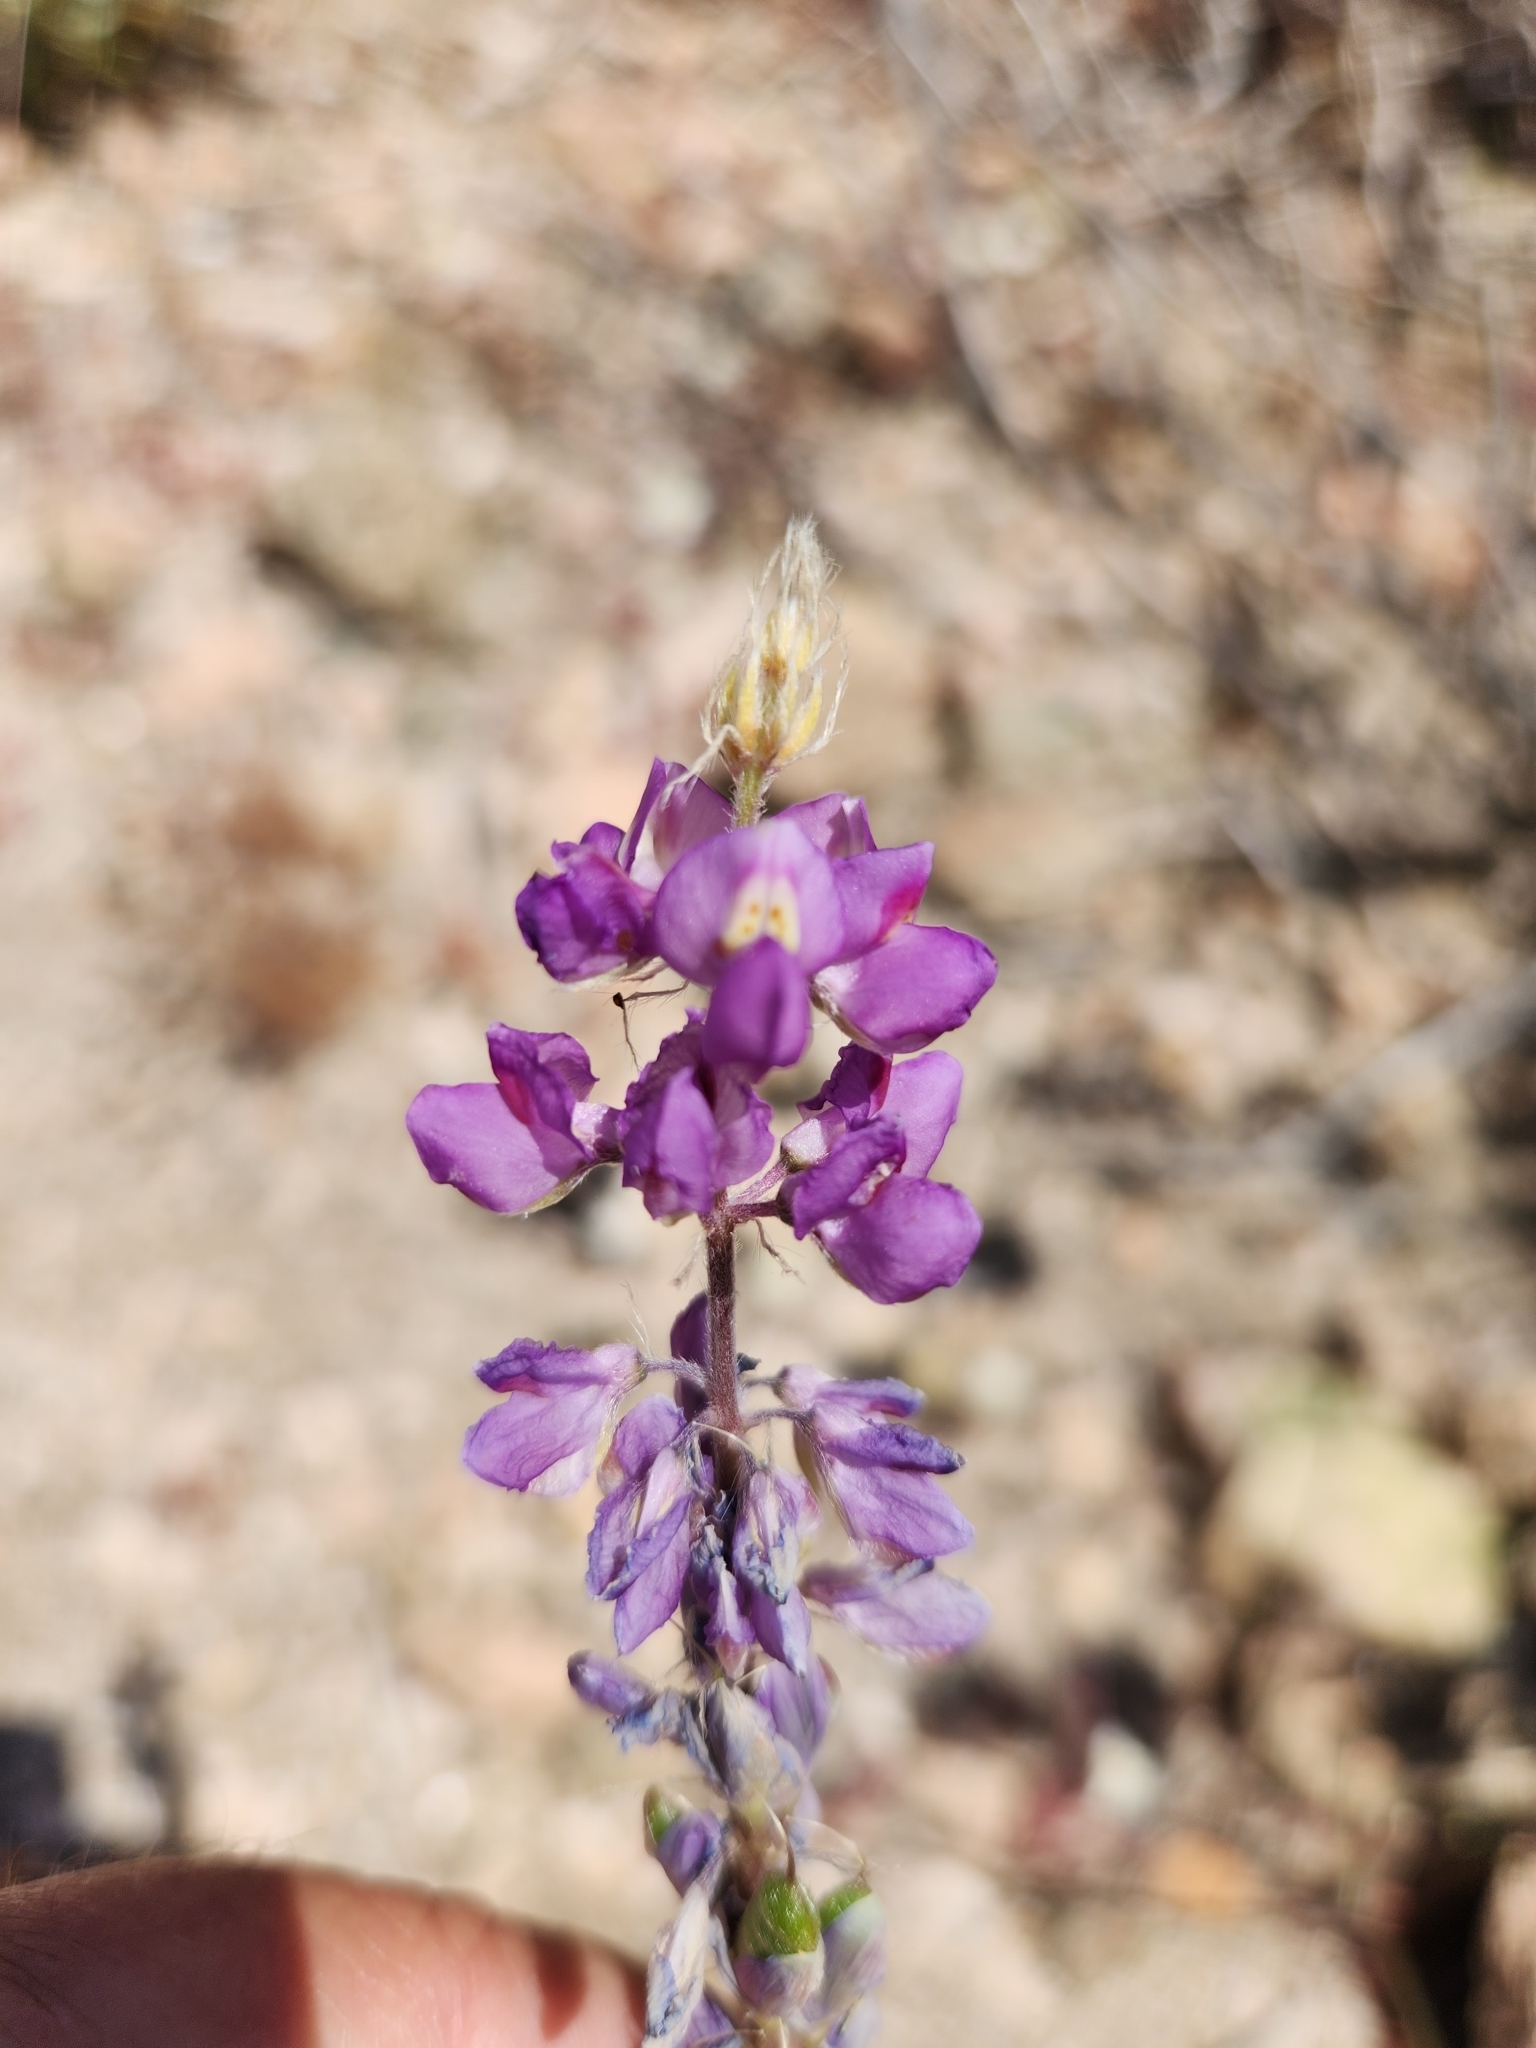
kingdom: Plantae
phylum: Tracheophyta
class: Magnoliopsida
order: Fabales
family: Fabaceae
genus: Lupinus
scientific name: Lupinus arizonicus
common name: Arizona lupine
